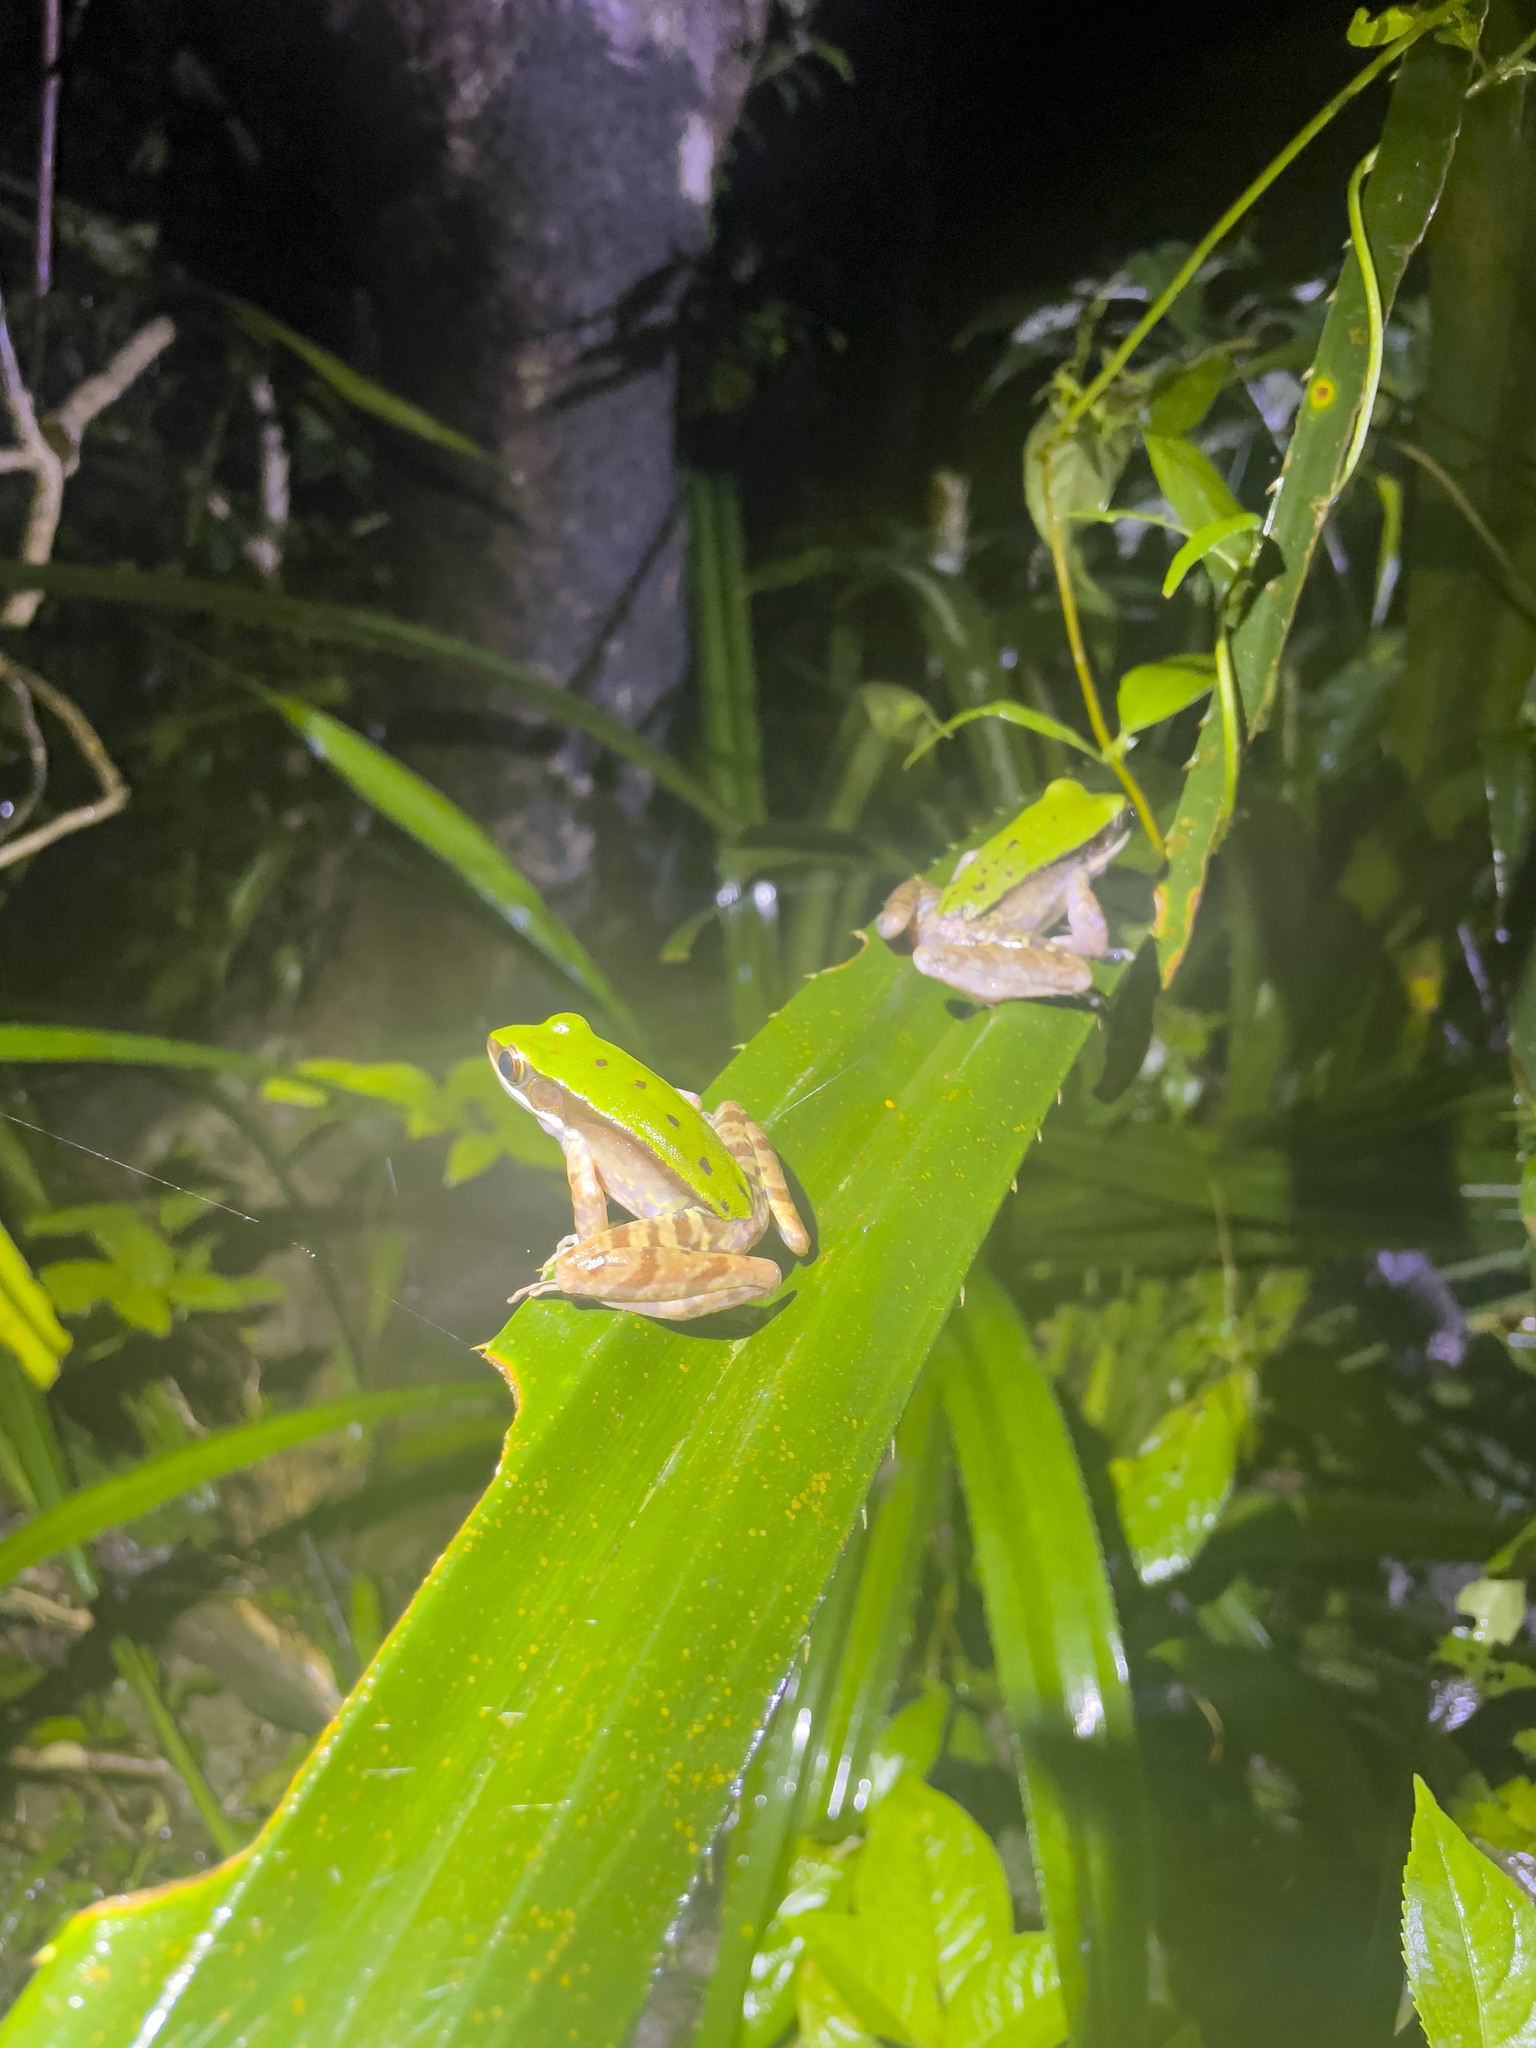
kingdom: Animalia
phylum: Chordata
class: Amphibia
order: Anura
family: Ranidae
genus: Odorrana
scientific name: Odorrana graminea
